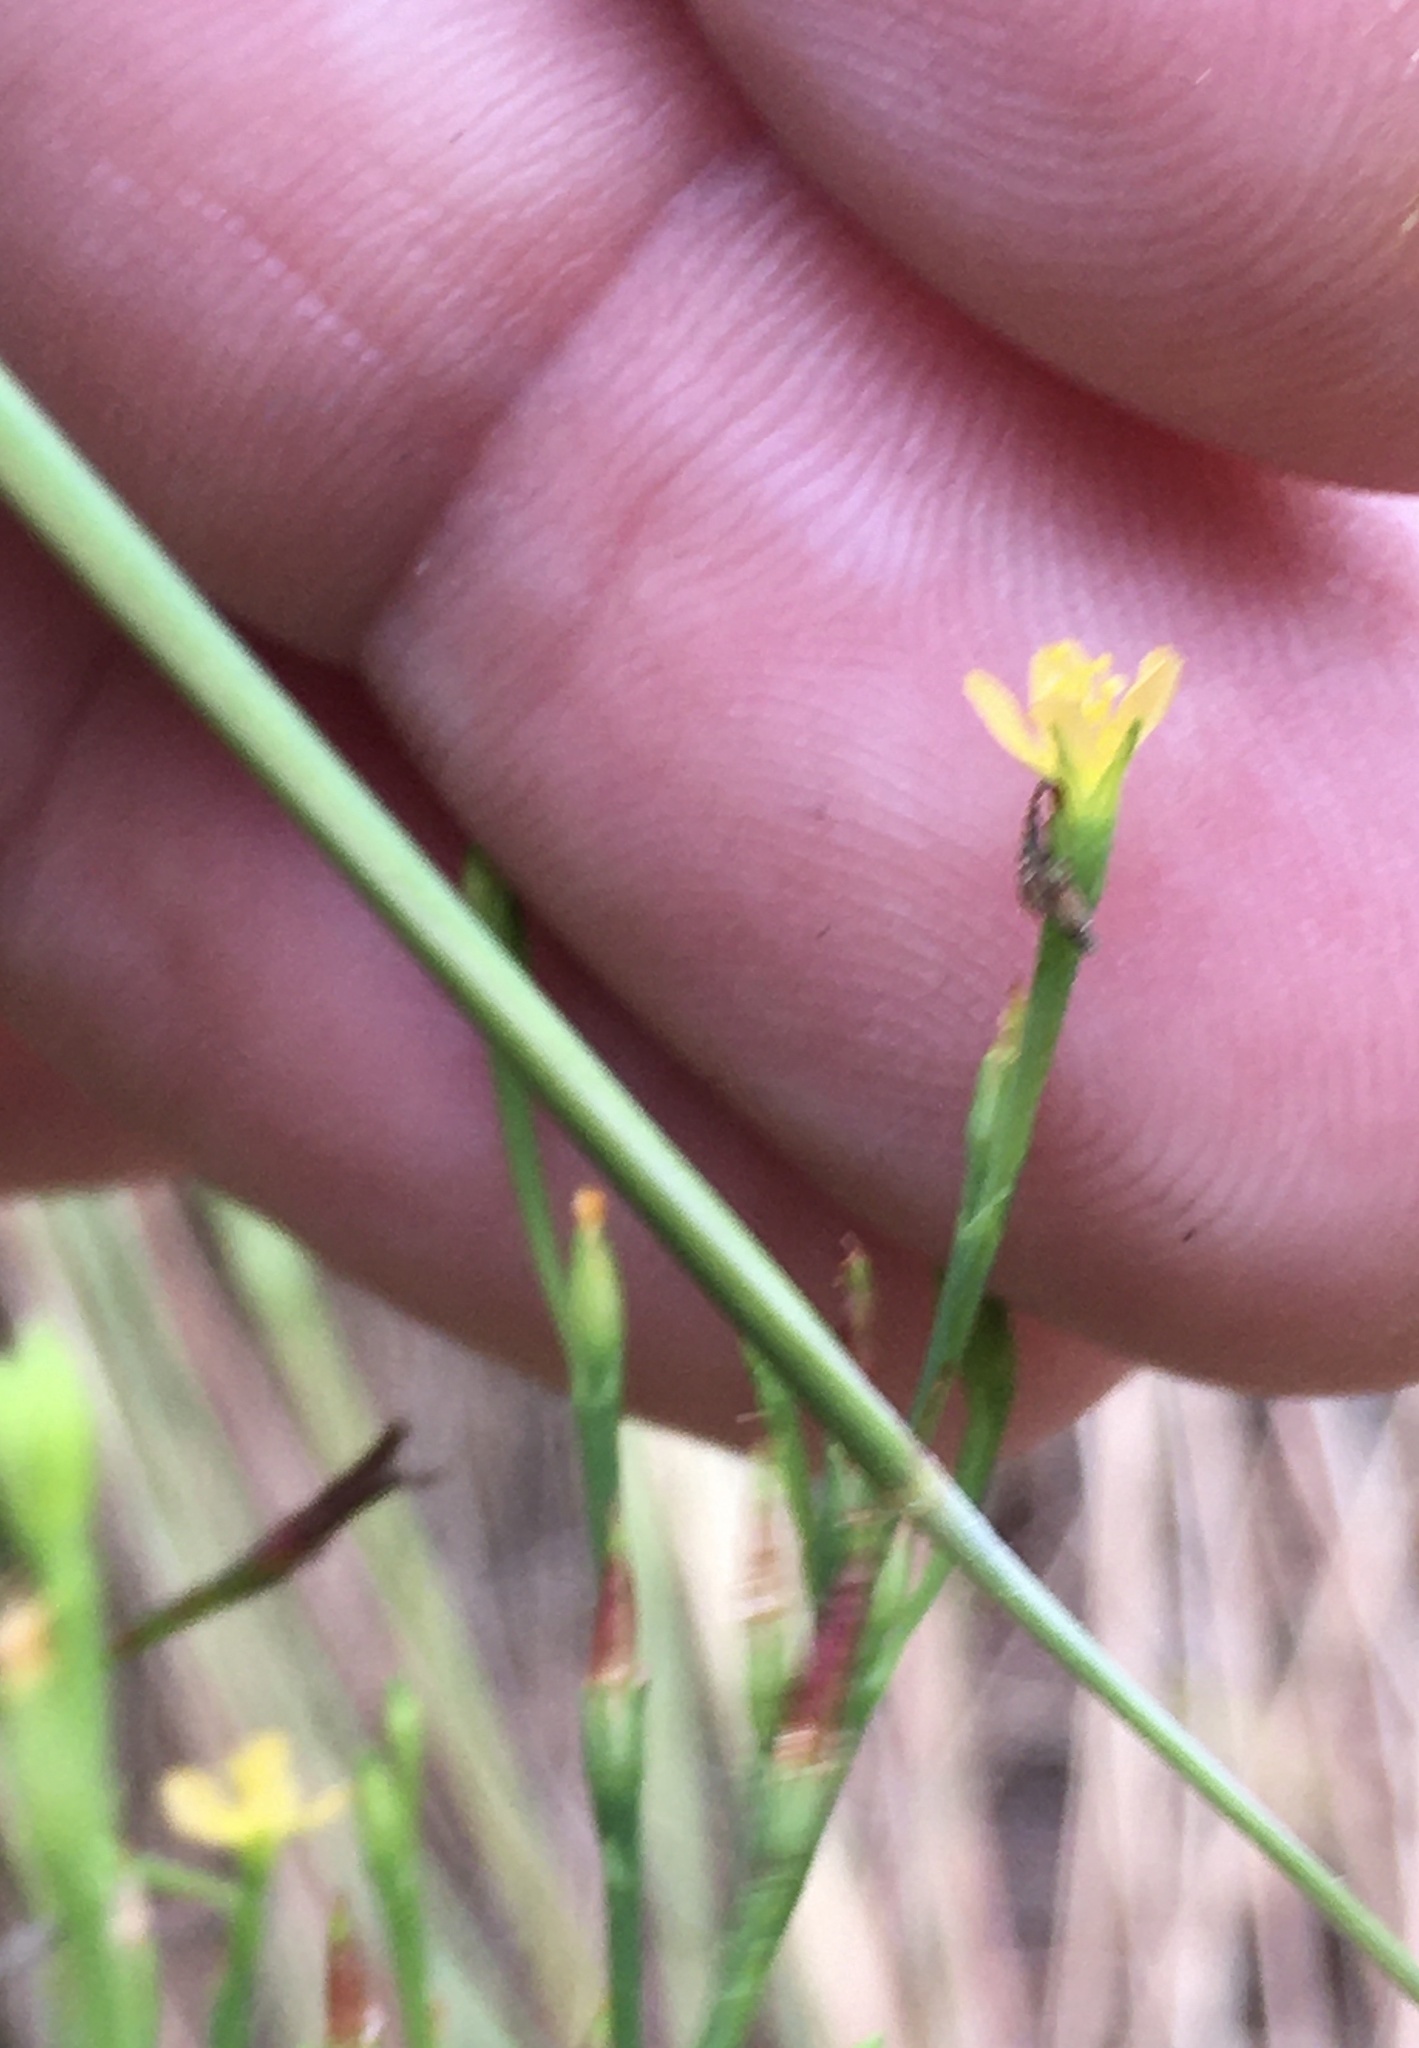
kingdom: Plantae
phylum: Tracheophyta
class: Magnoliopsida
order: Malpighiales
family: Hypericaceae
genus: Hypericum
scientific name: Hypericum gentianoides
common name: Gentian-leaved st. john's-wort
